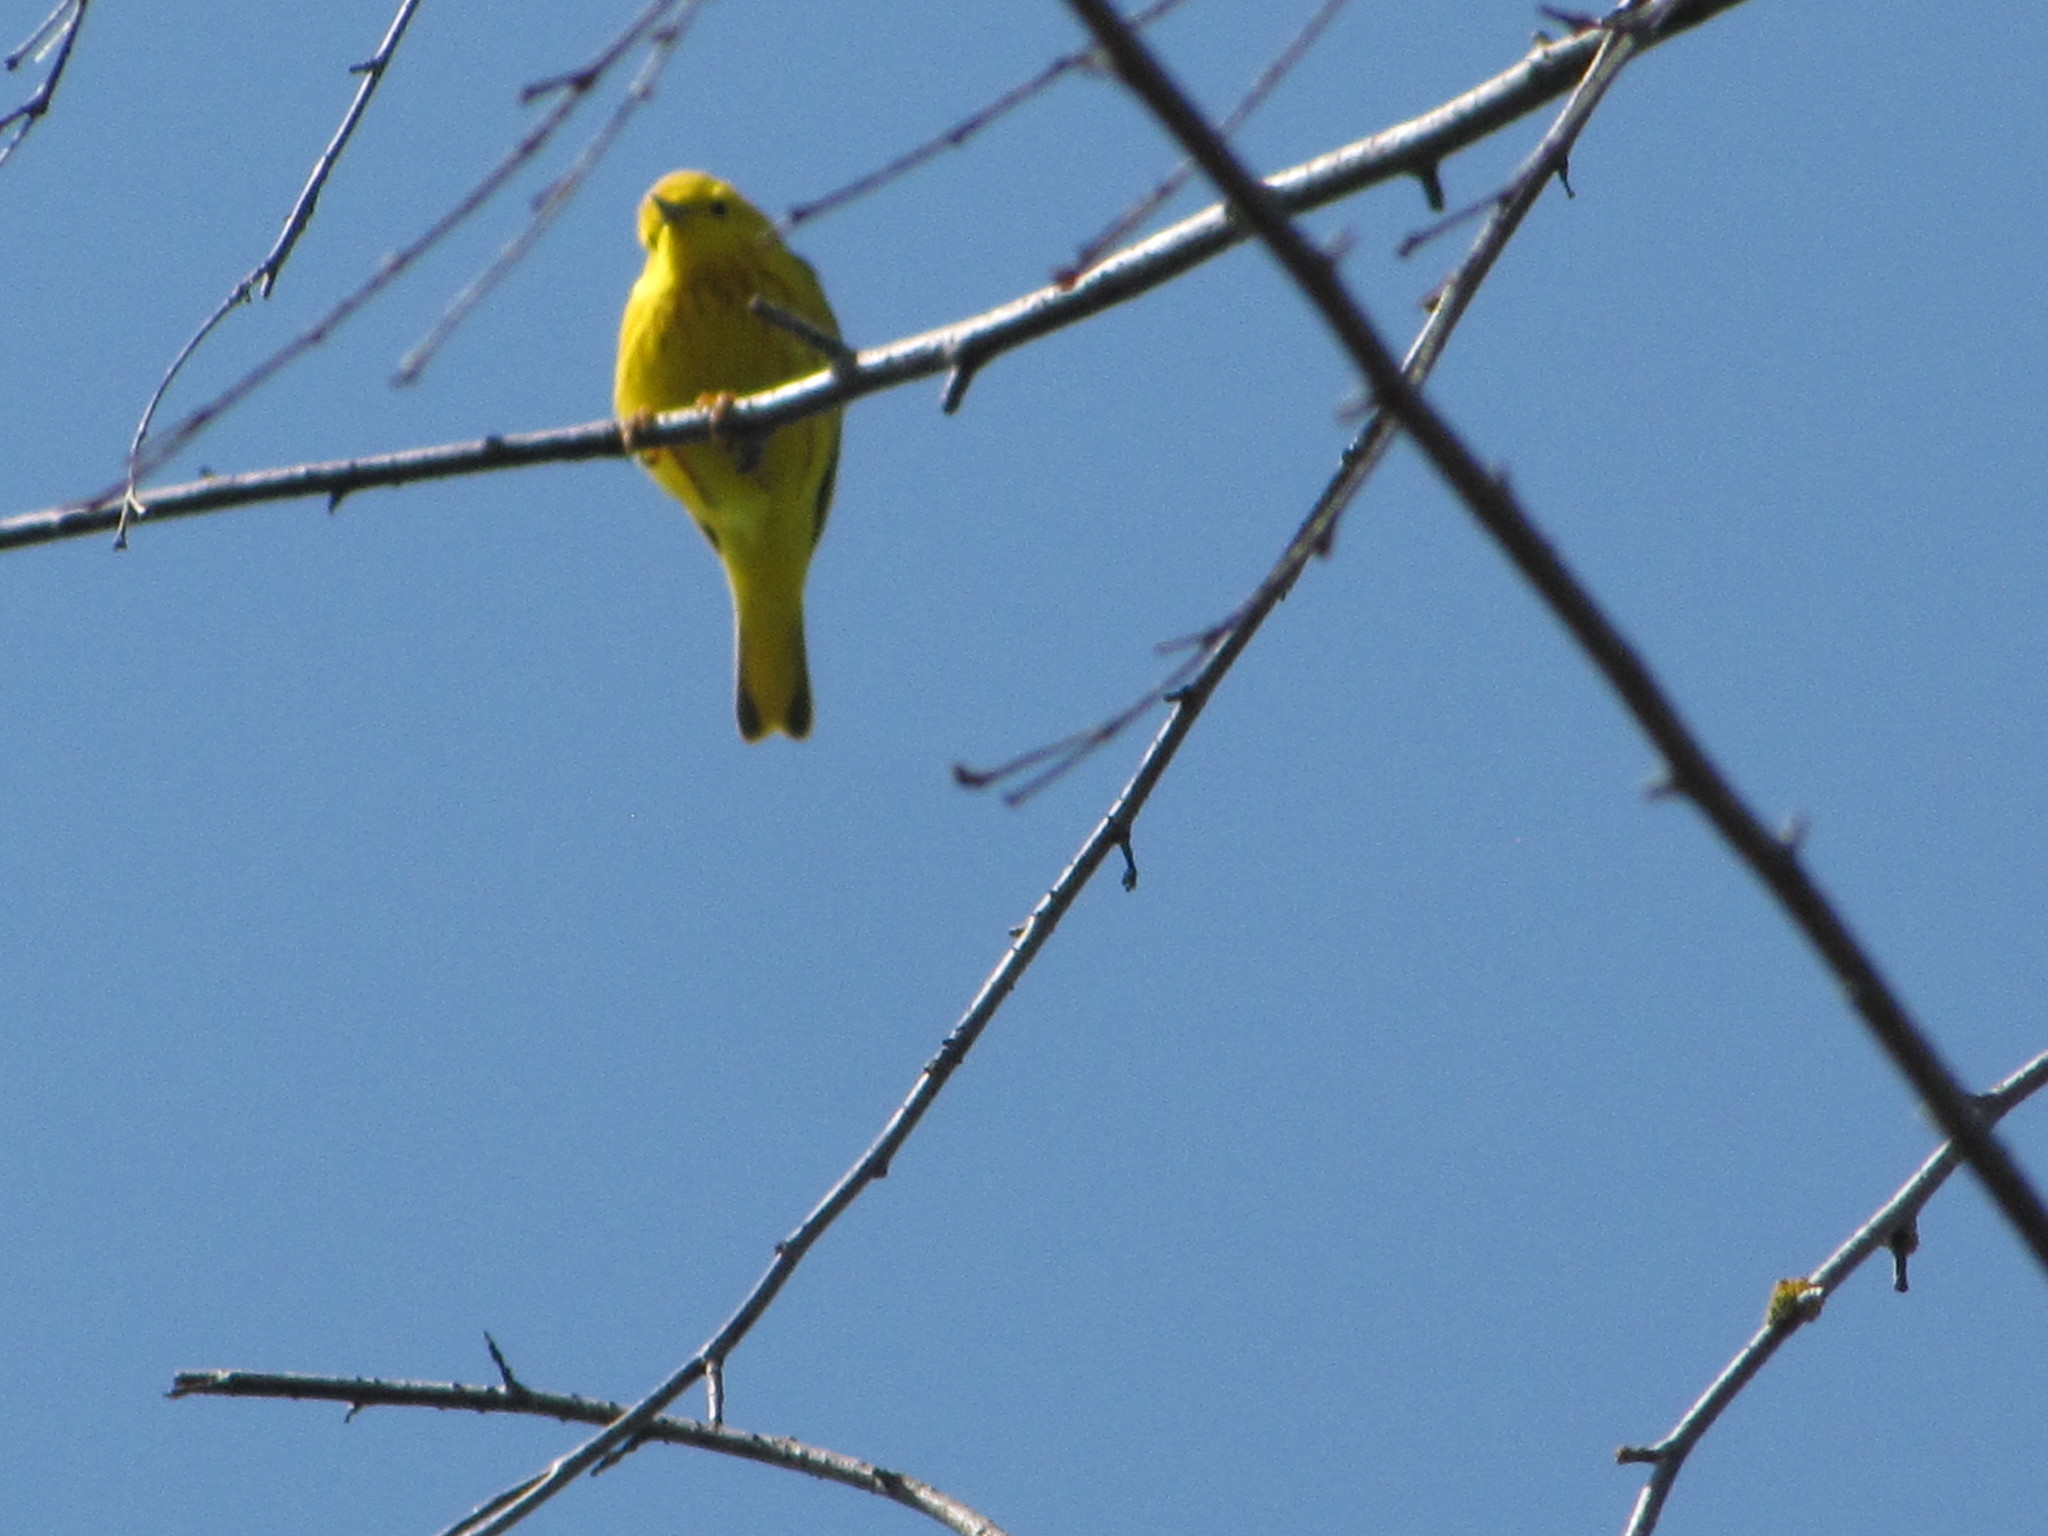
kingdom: Animalia
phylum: Chordata
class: Aves
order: Passeriformes
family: Parulidae
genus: Setophaga
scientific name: Setophaga petechia
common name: Yellow warbler
